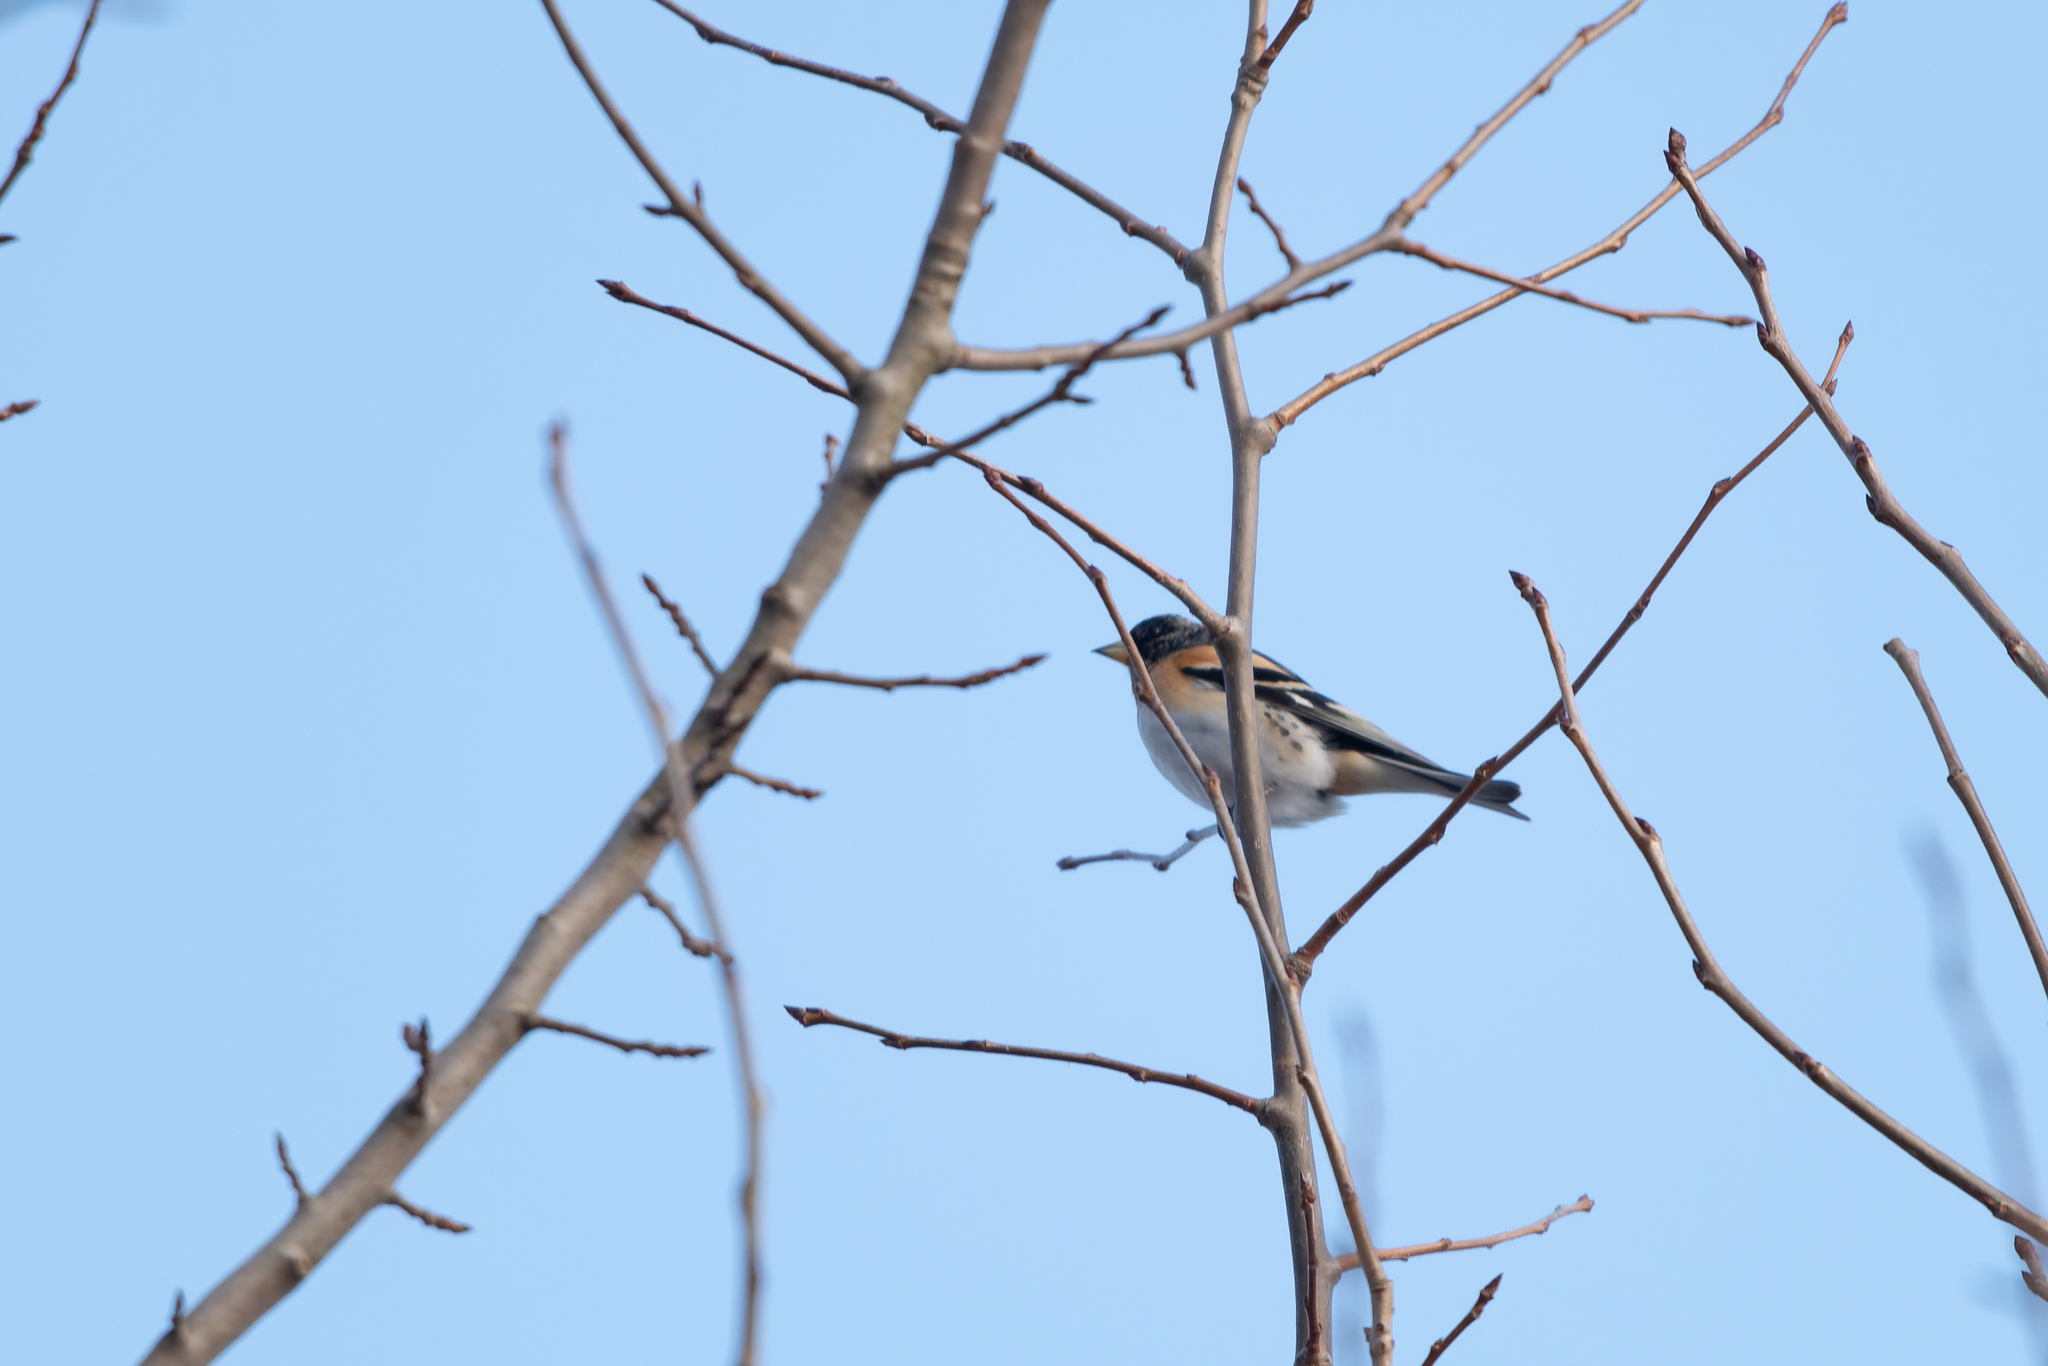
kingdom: Animalia
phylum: Chordata
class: Aves
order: Passeriformes
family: Fringillidae
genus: Fringilla
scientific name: Fringilla montifringilla
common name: Brambling
